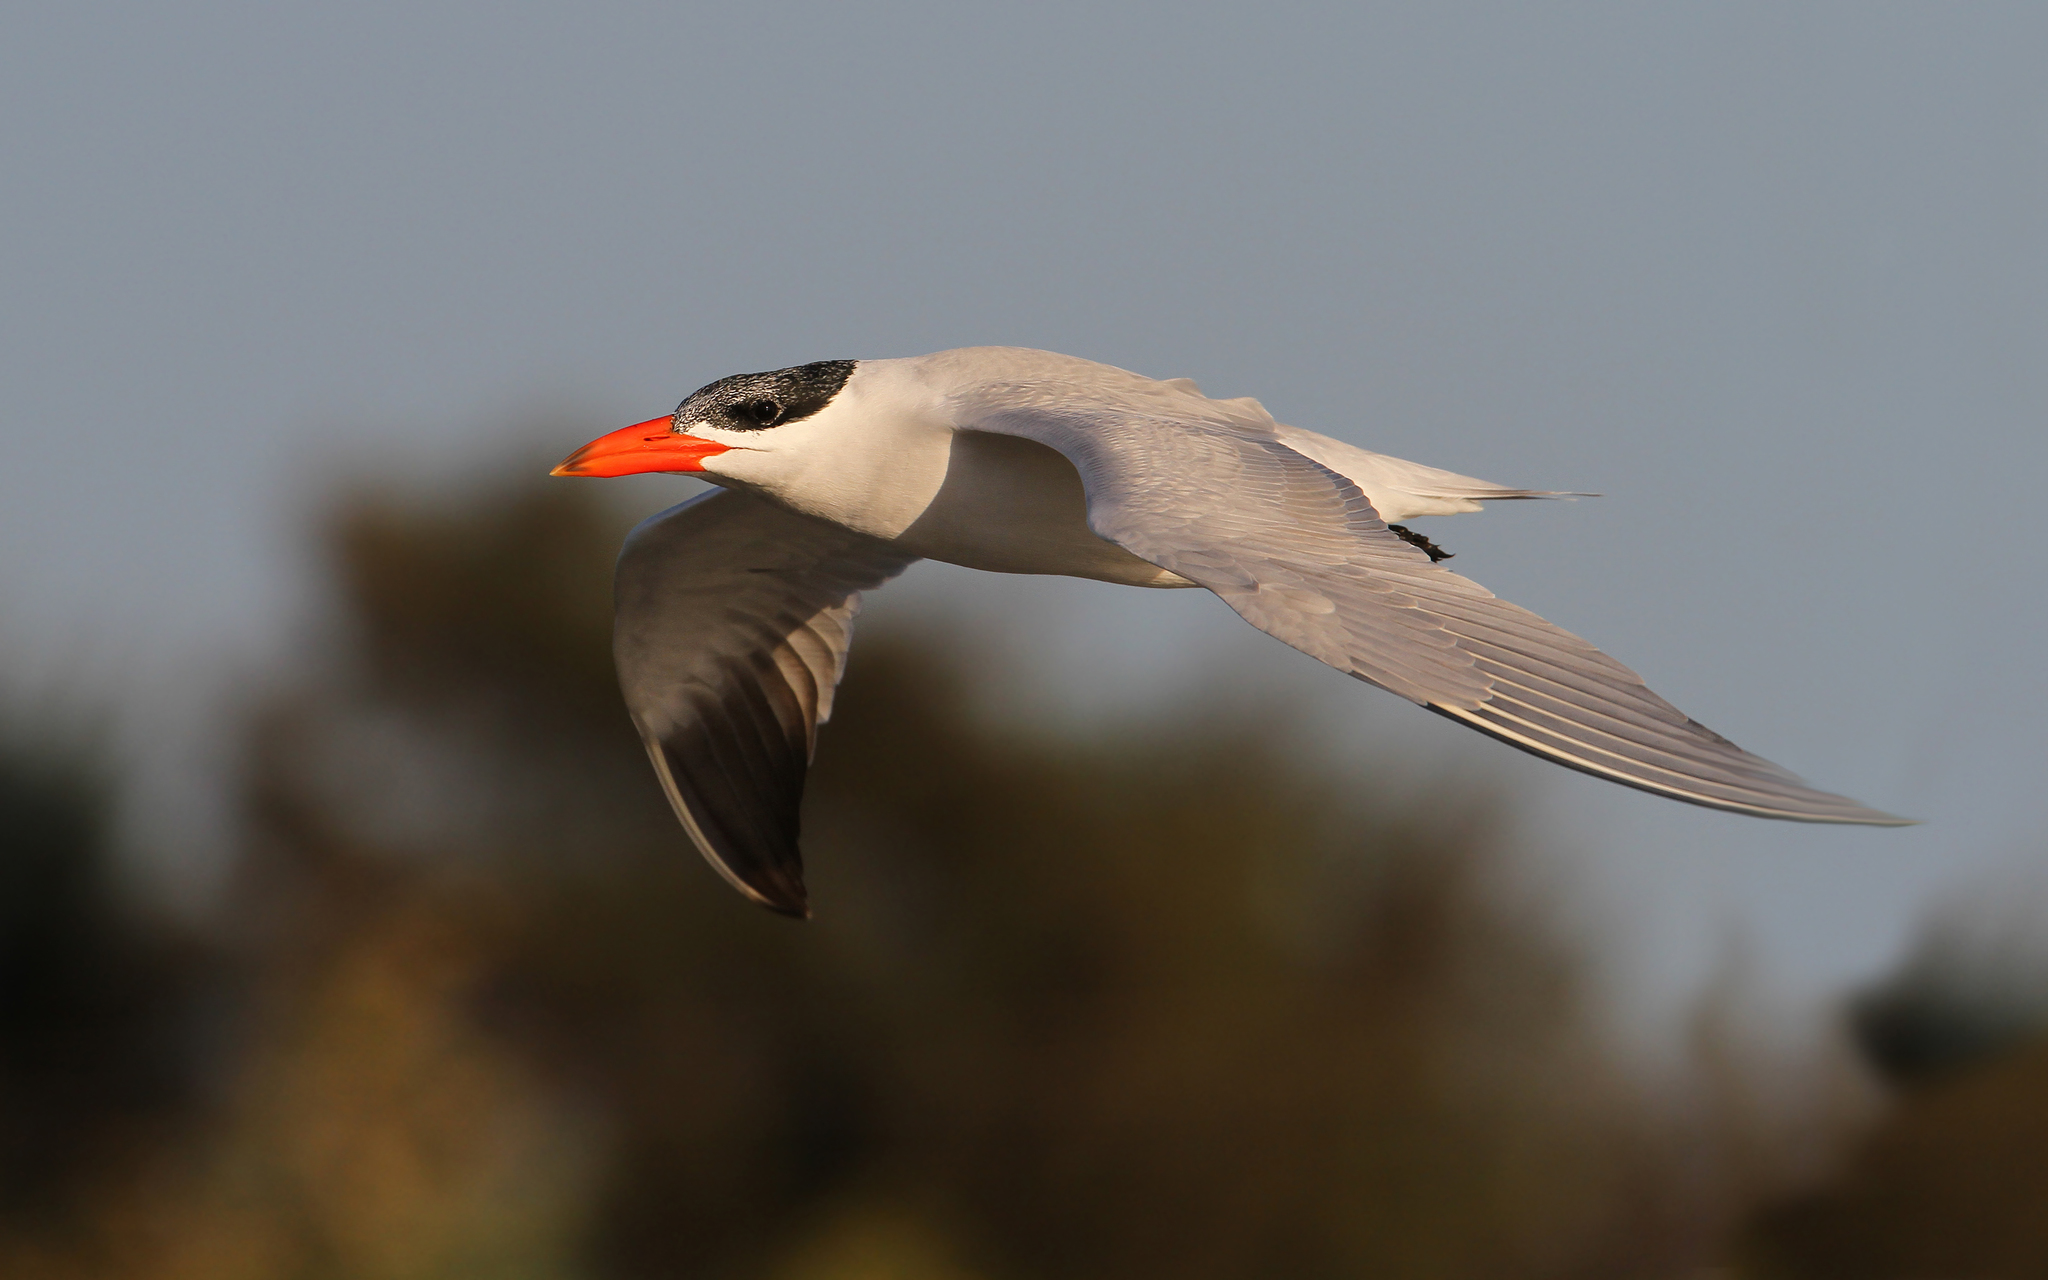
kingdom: Animalia
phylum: Chordata
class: Aves
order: Charadriiformes
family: Laridae
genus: Hydroprogne
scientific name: Hydroprogne caspia
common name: Caspian tern
